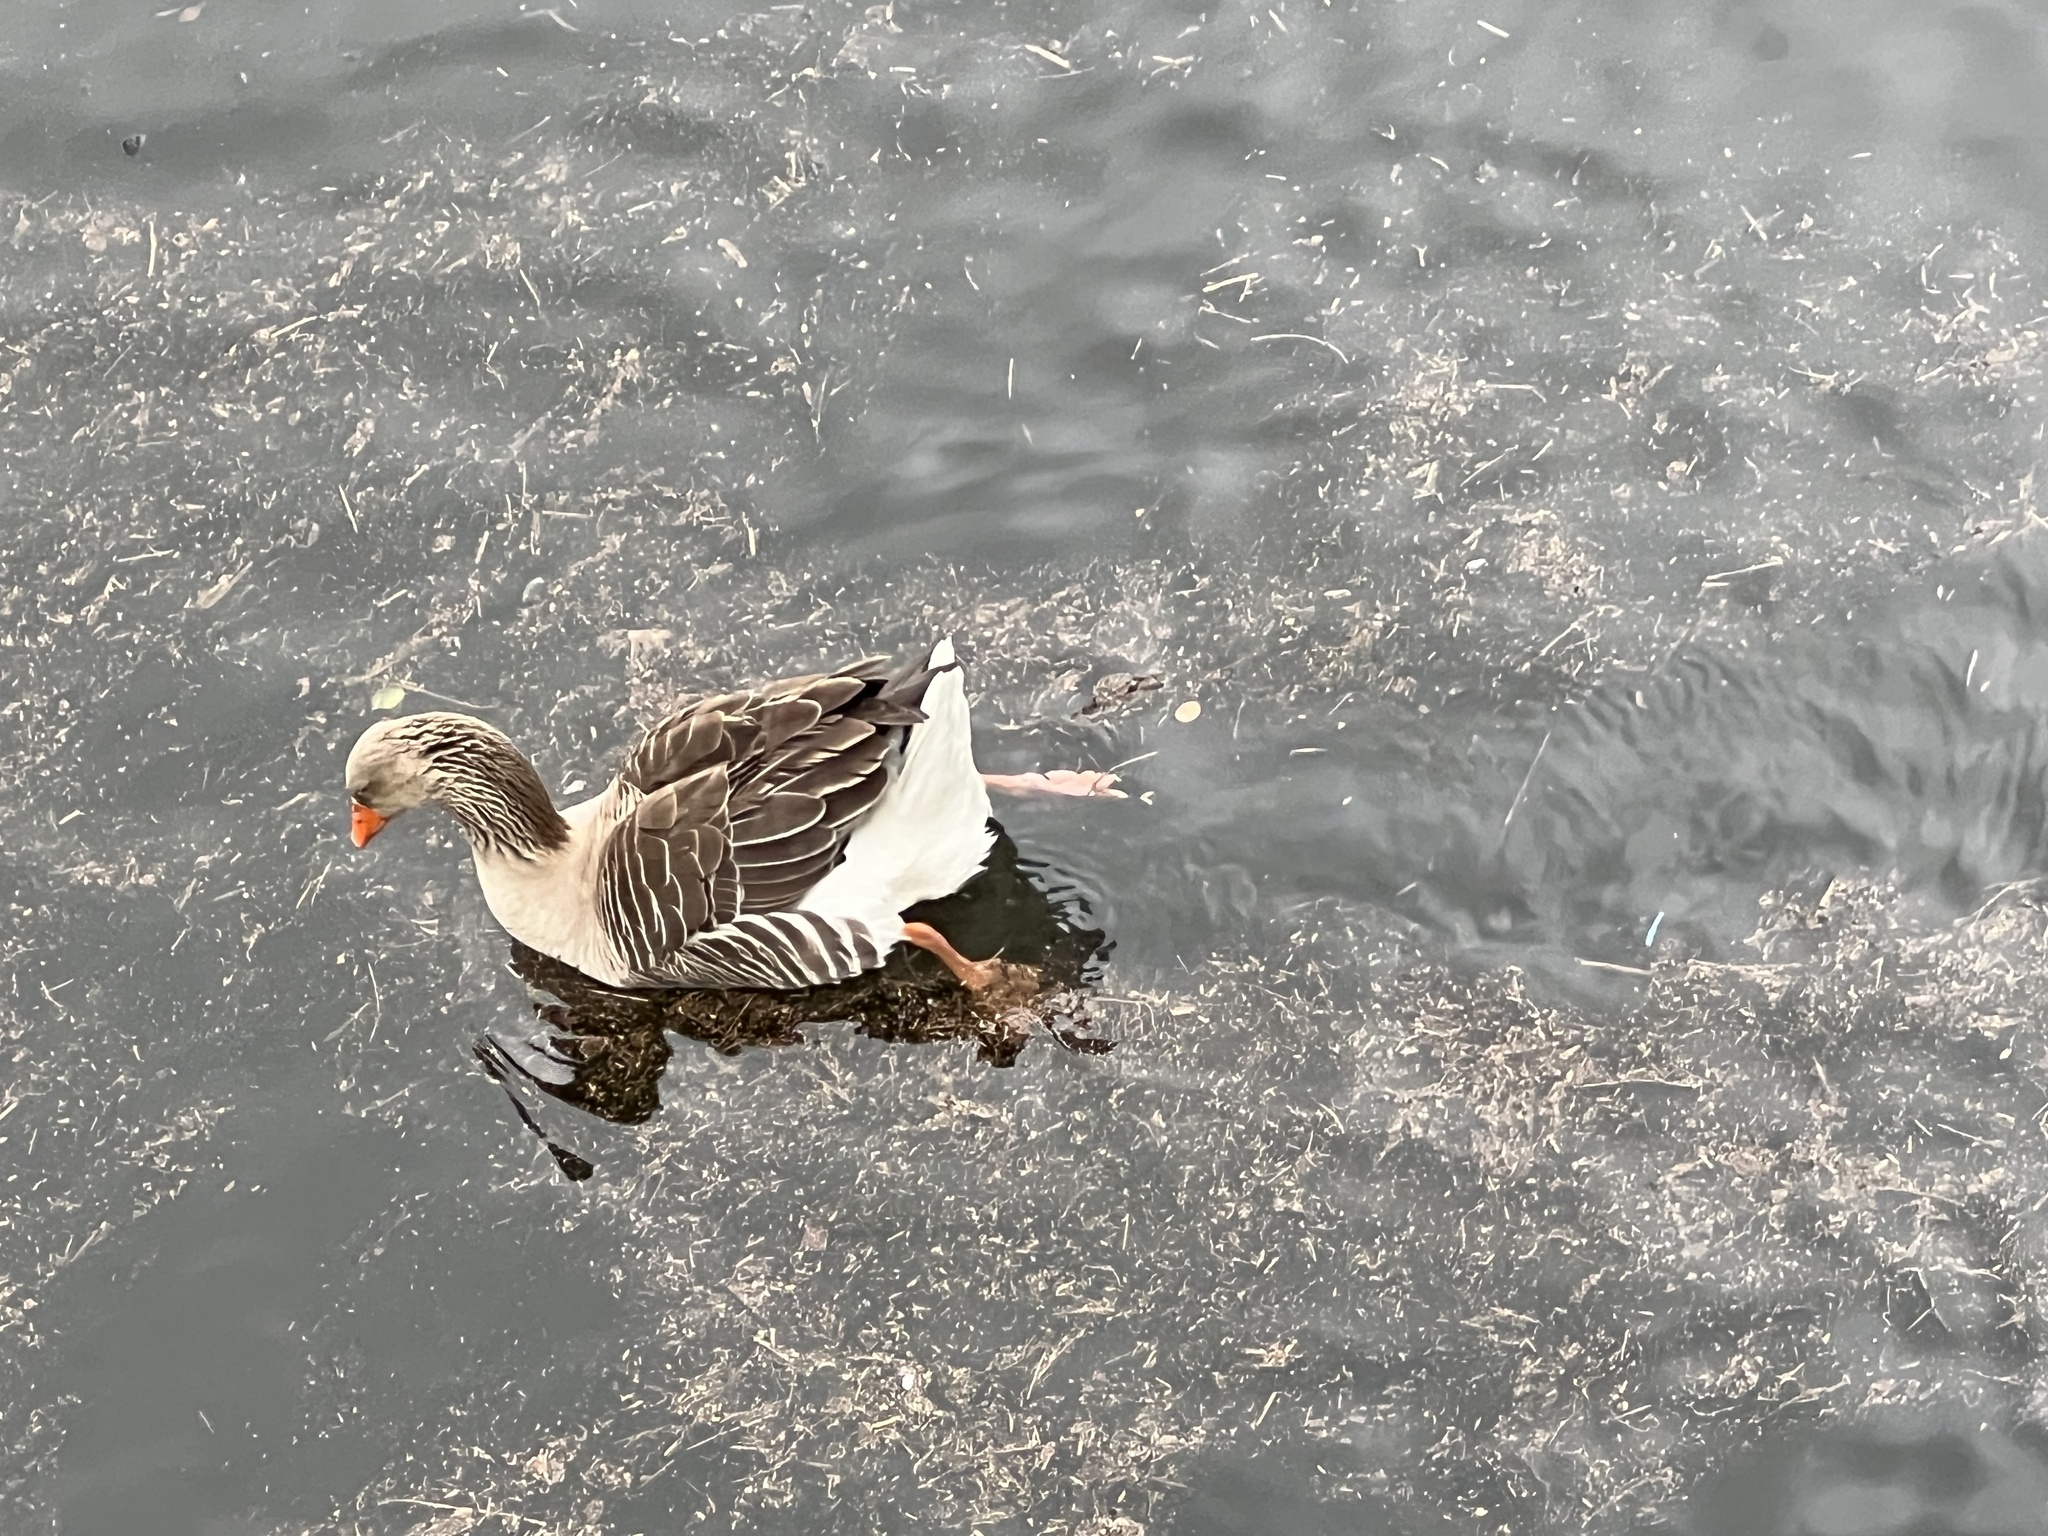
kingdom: Animalia
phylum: Chordata
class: Aves
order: Anseriformes
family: Anatidae
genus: Anser
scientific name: Anser anser
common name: Greylag goose
